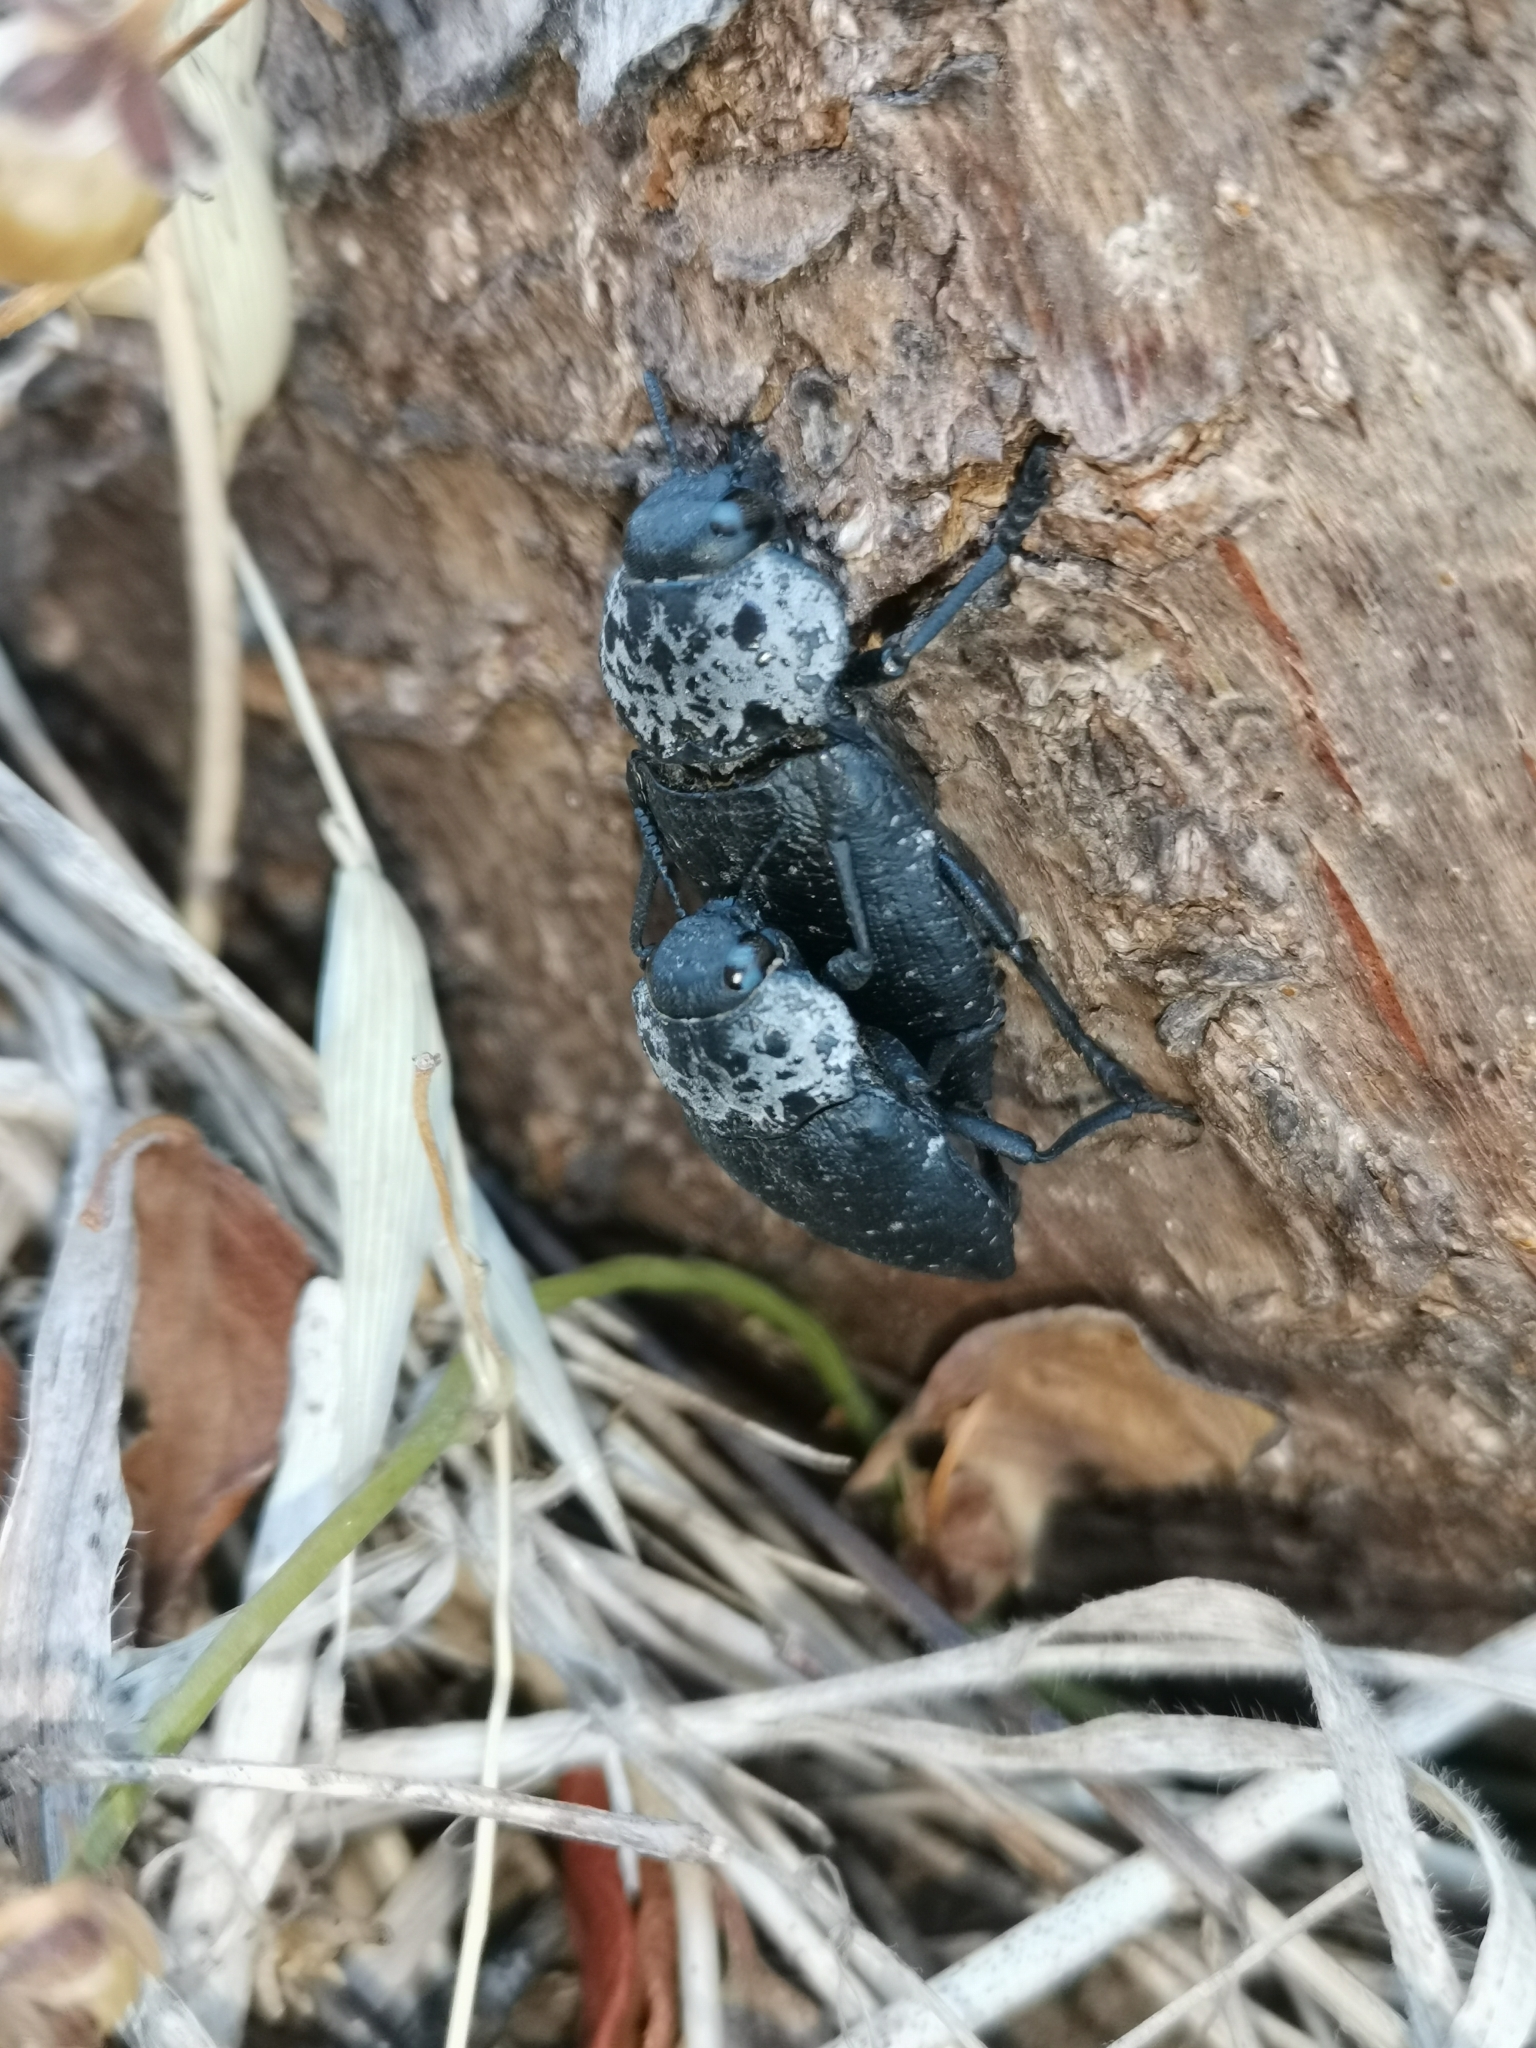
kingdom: Animalia
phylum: Arthropoda
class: Insecta
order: Coleoptera
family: Buprestidae
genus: Capnodis
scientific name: Capnodis tenebrionis
